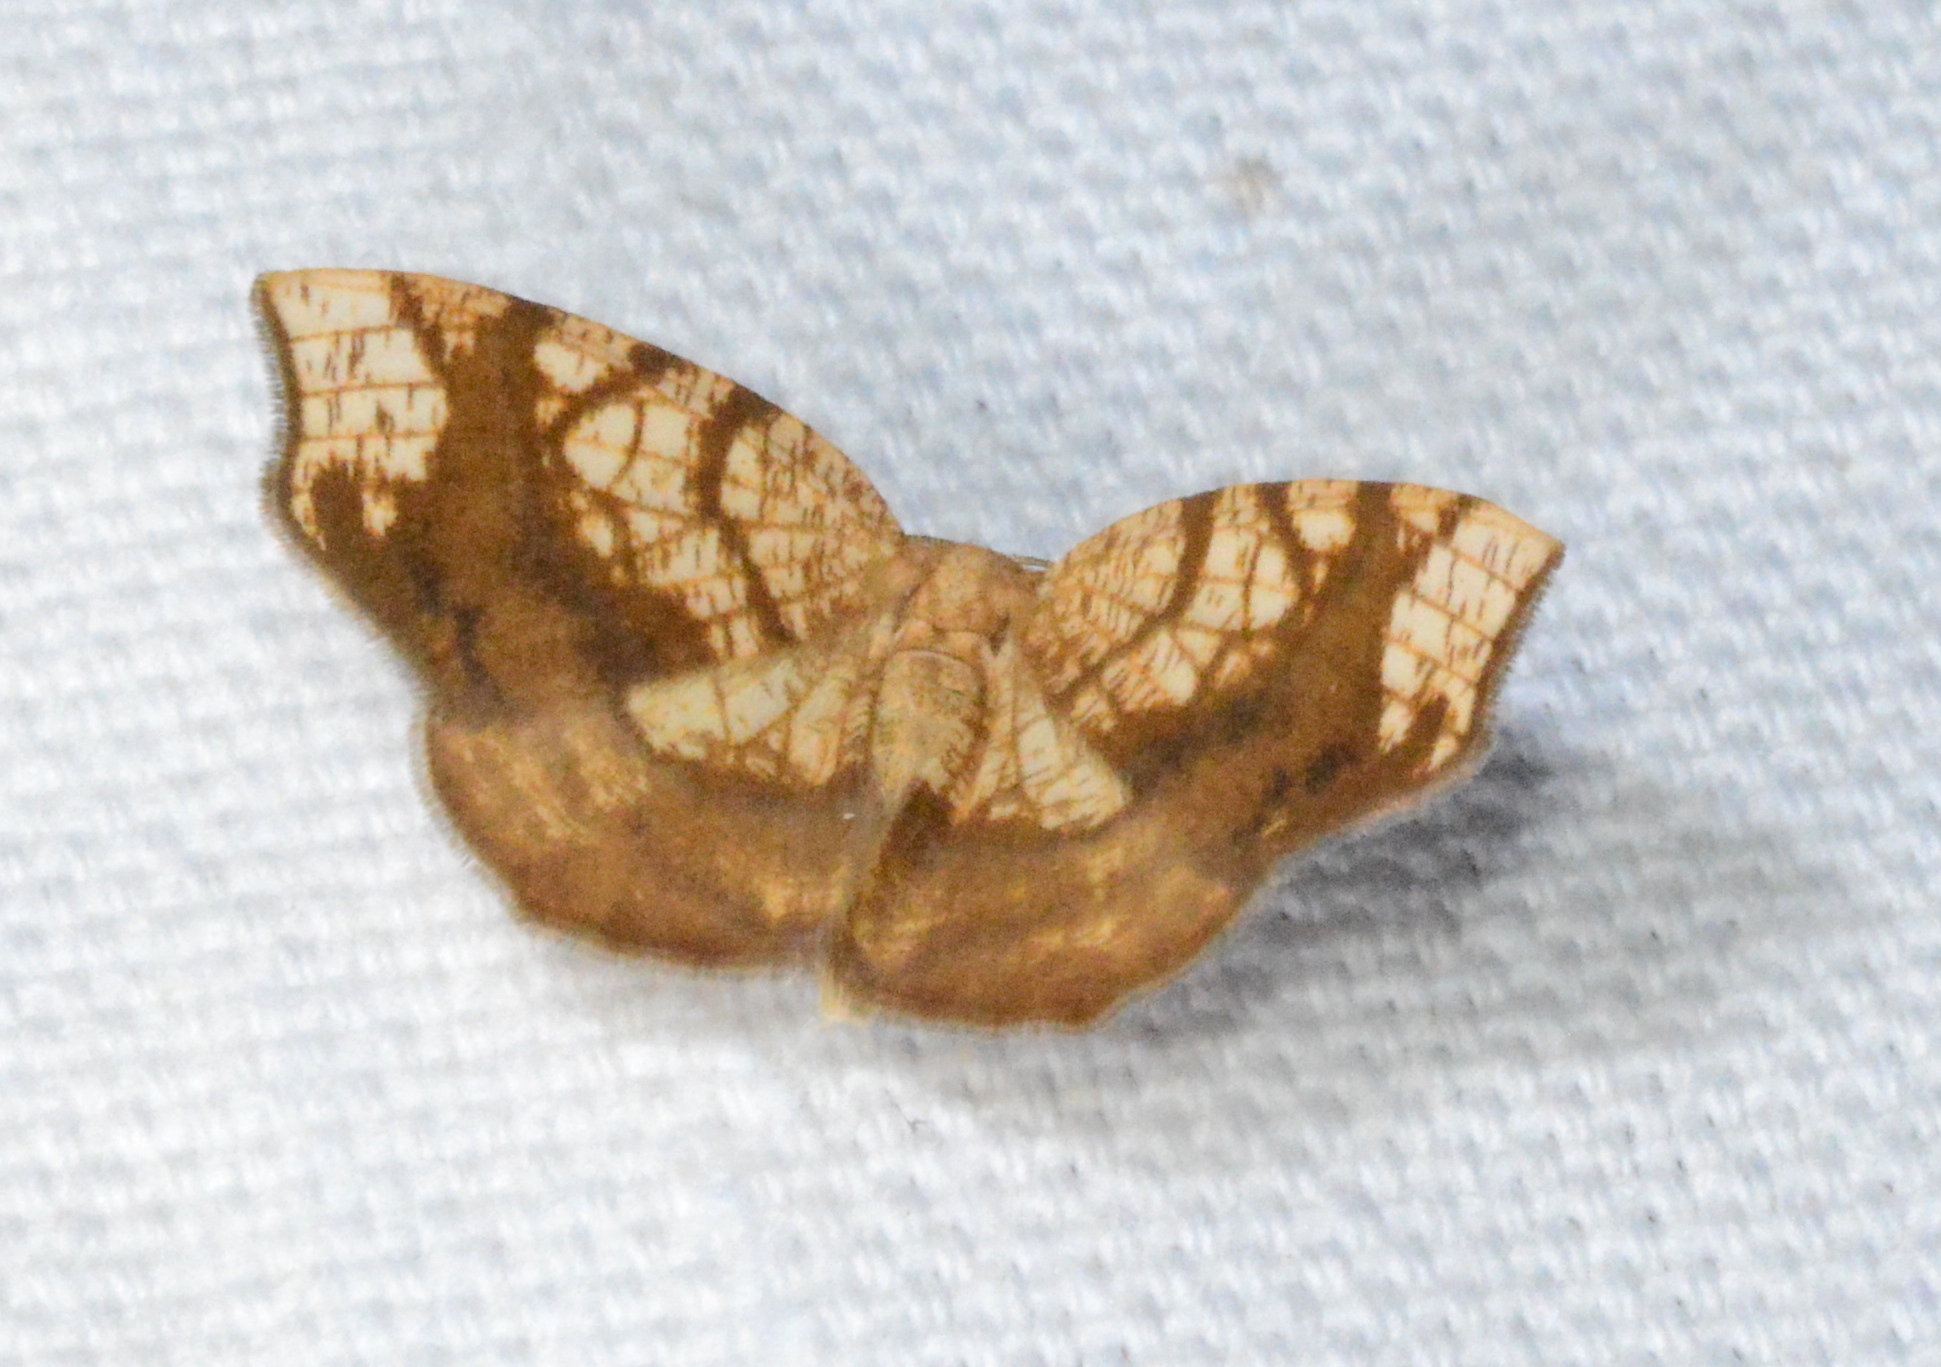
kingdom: Animalia
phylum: Arthropoda
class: Insecta
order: Lepidoptera
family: Geometridae
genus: Nematocampa
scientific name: Nematocampa resistaria
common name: Horned spanworm moth
